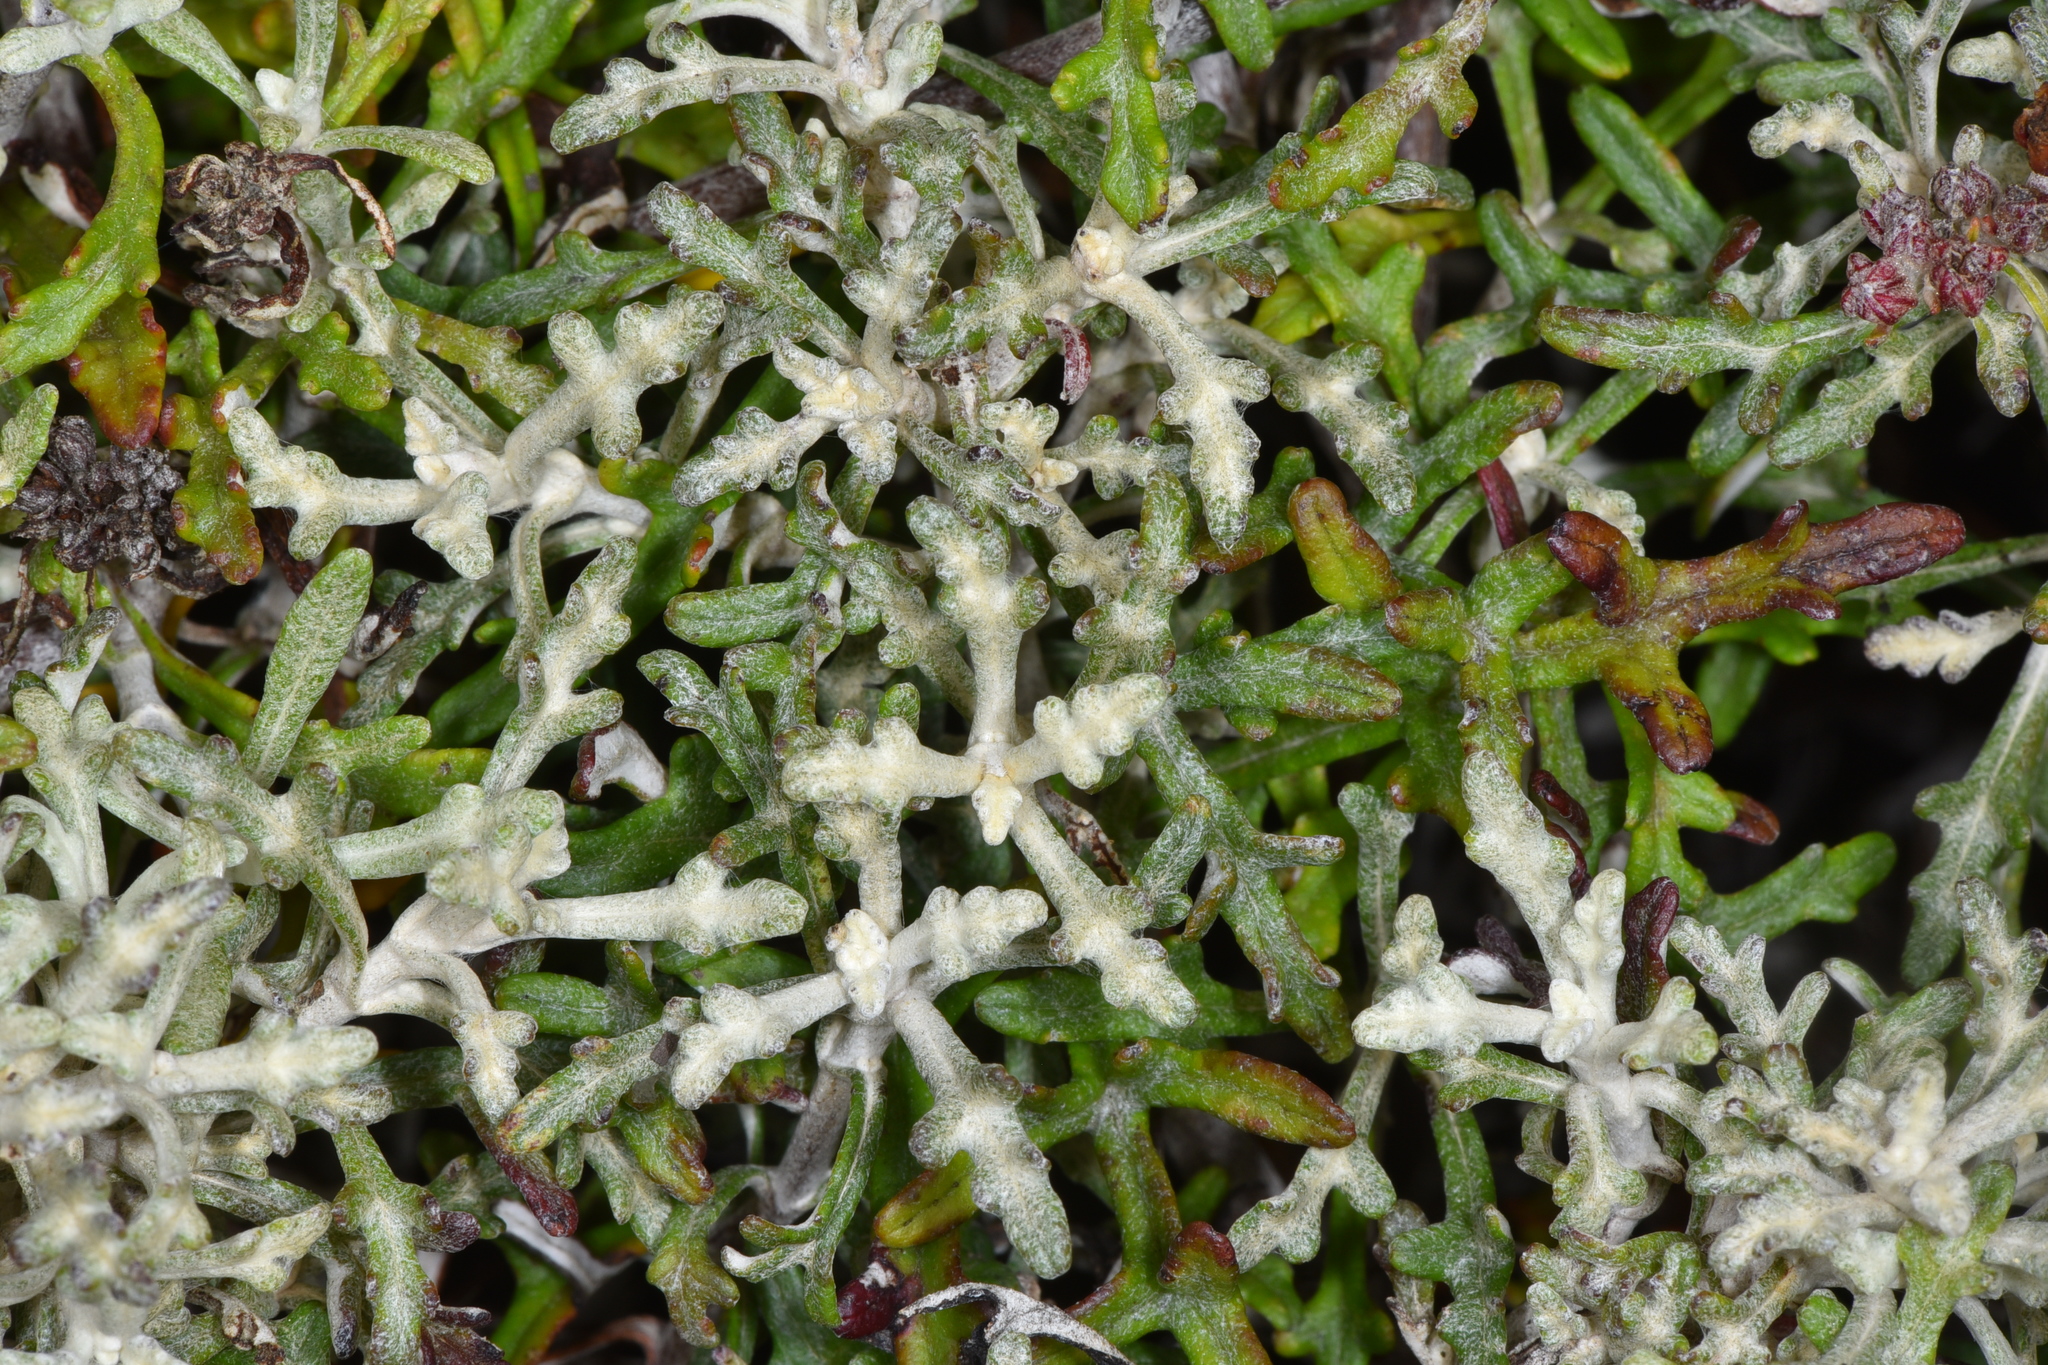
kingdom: Plantae
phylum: Tracheophyta
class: Magnoliopsida
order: Asterales
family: Asteraceae
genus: Eriophyllum
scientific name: Eriophyllum staechadifolium
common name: Lizardtail
